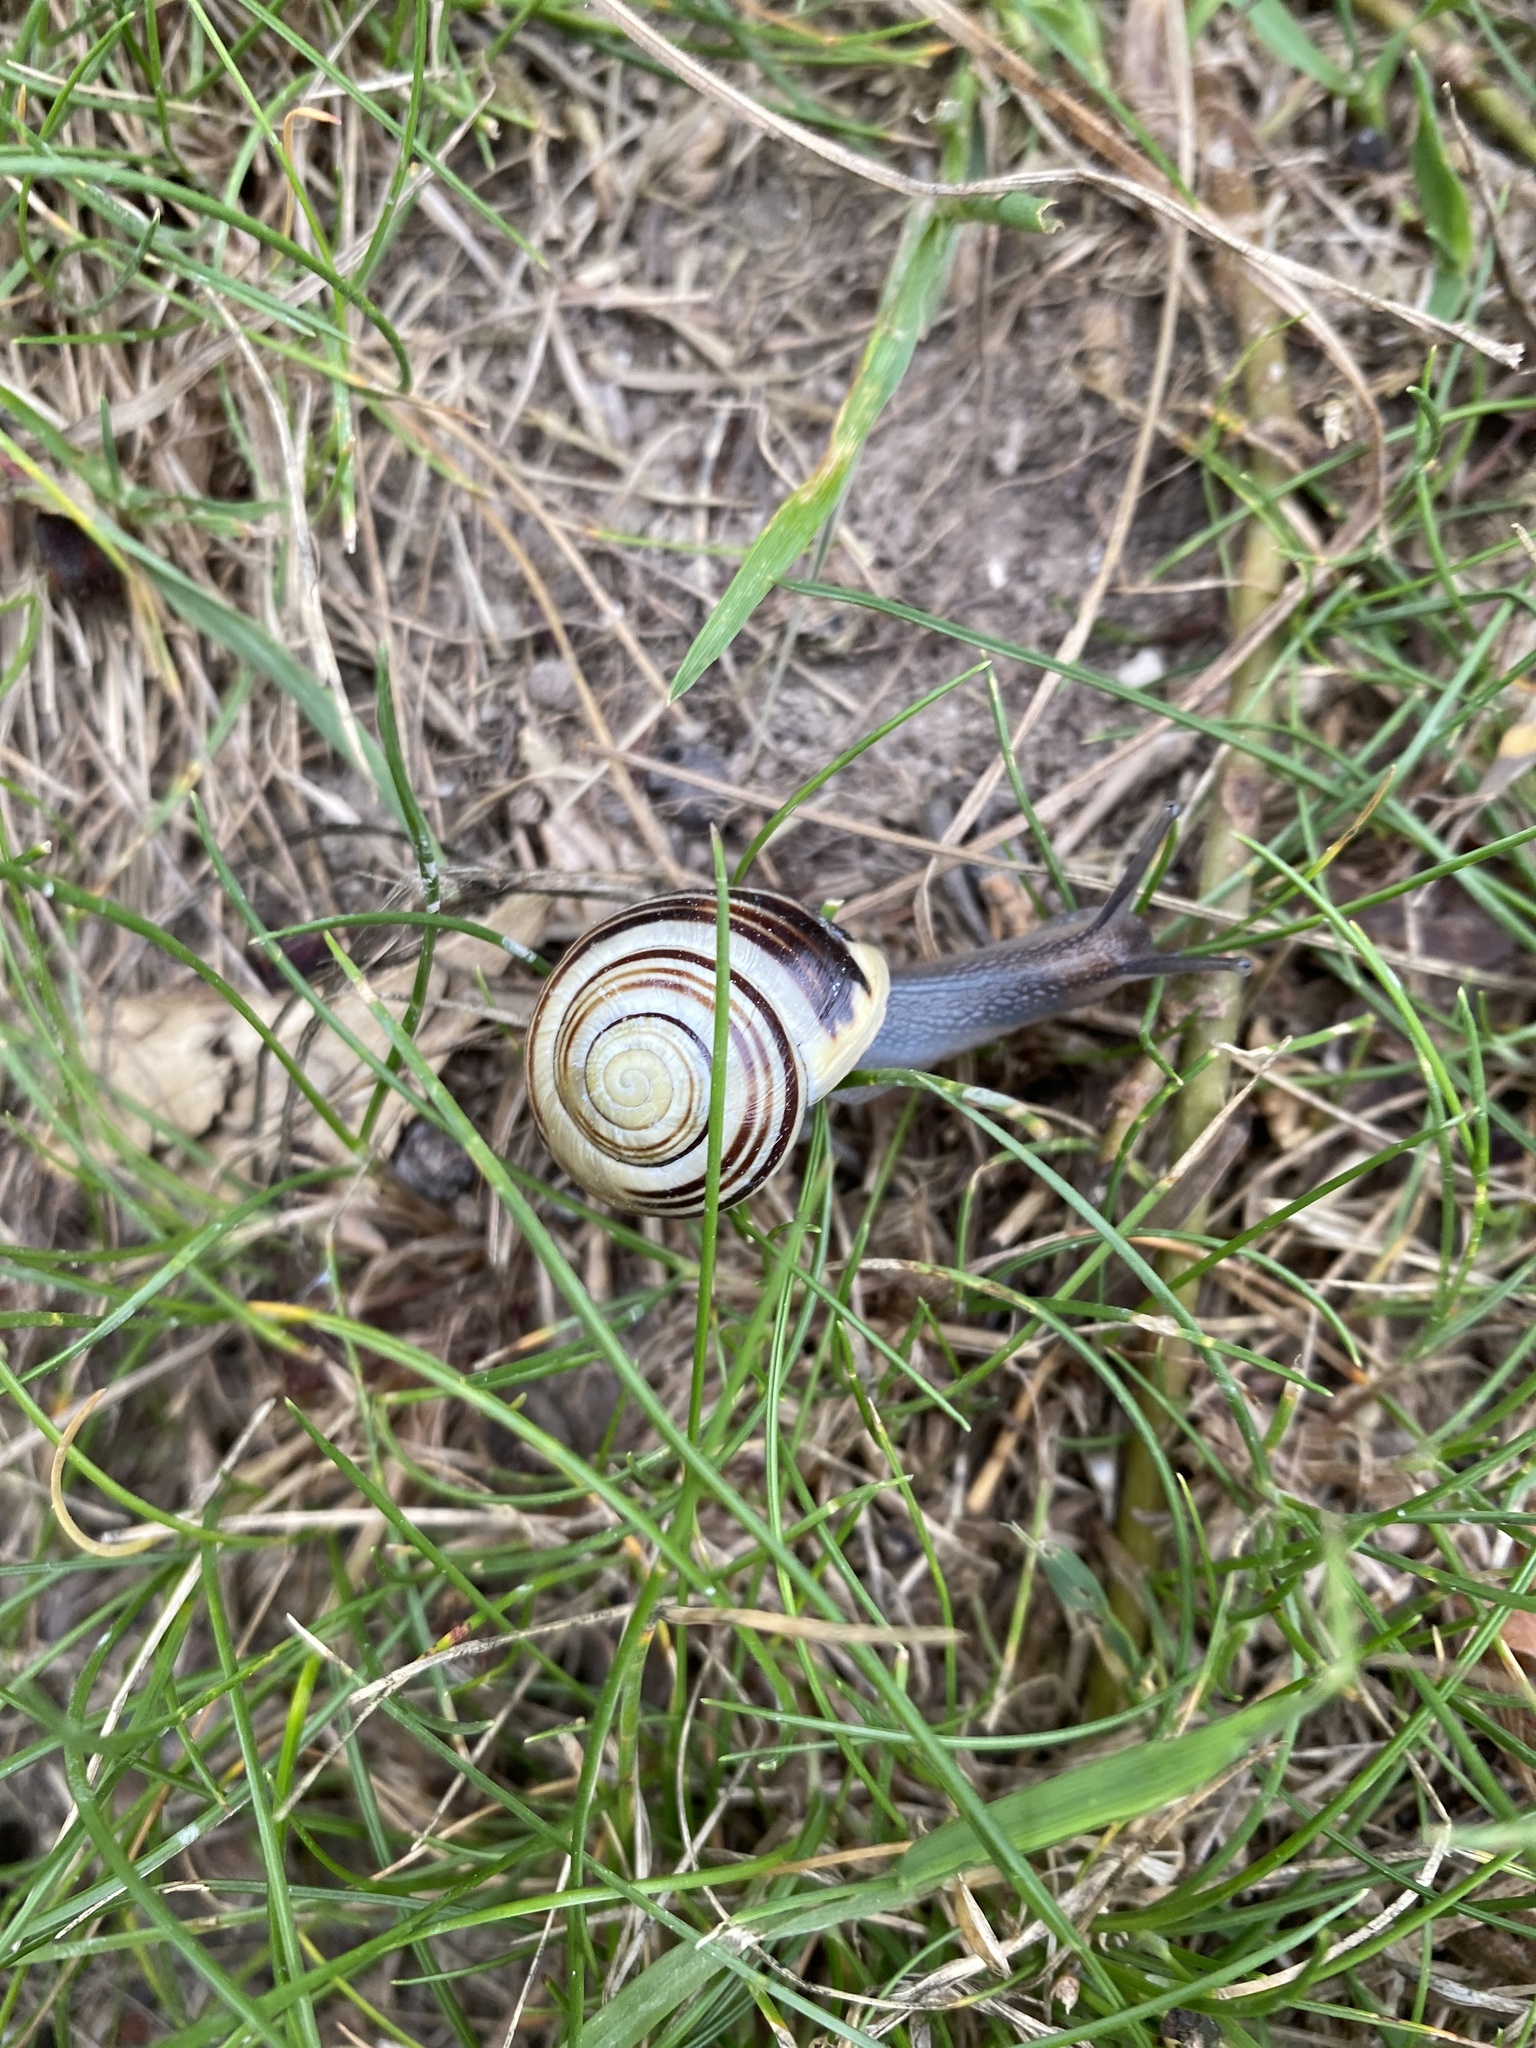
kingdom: Animalia
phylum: Mollusca
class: Gastropoda
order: Stylommatophora
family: Helicidae
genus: Cepaea
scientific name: Cepaea hortensis
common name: White-lip gardensnail
